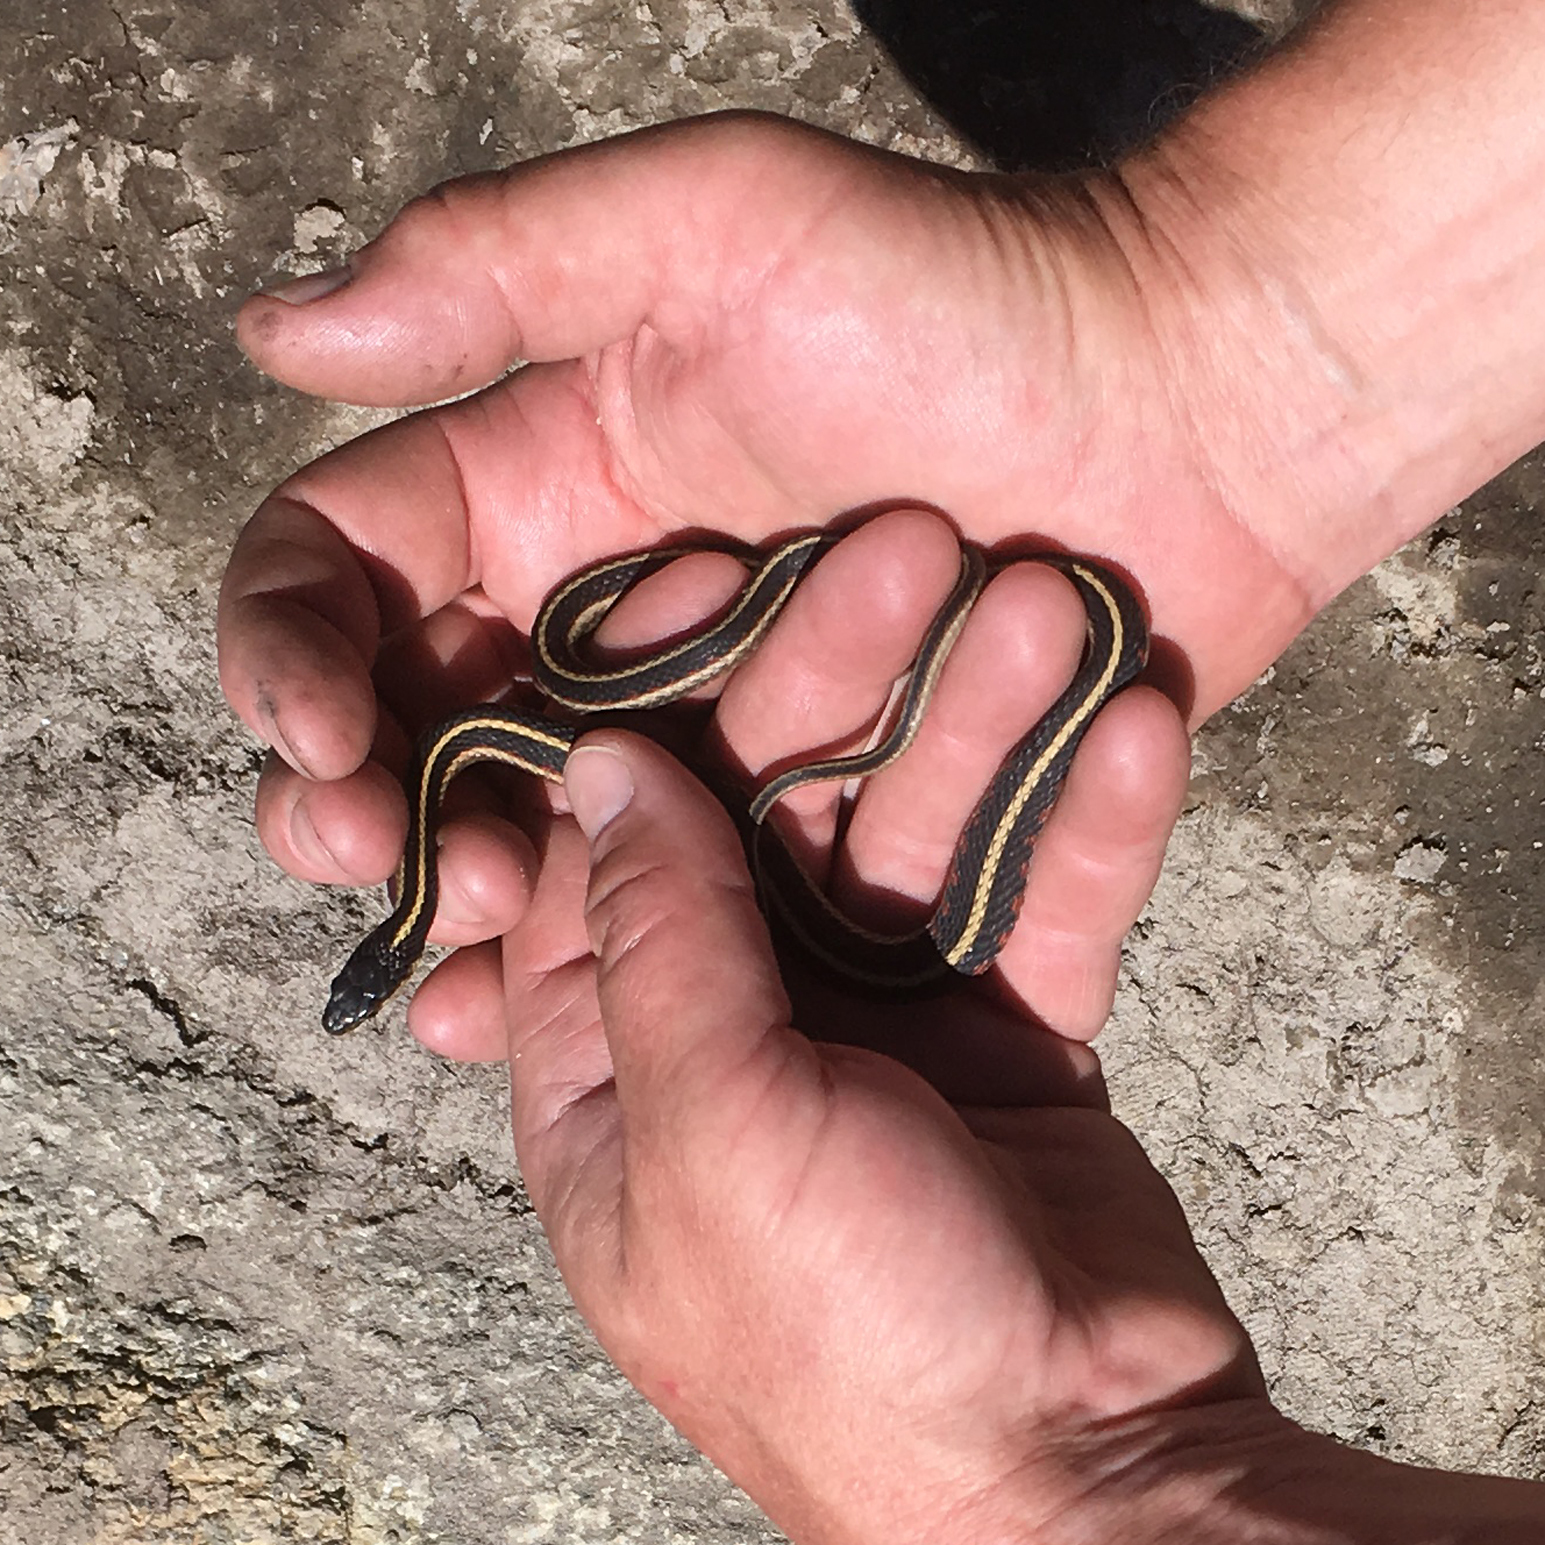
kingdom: Animalia
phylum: Chordata
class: Squamata
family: Colubridae
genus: Thamnophis
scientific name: Thamnophis sirtalis
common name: Common garter snake
